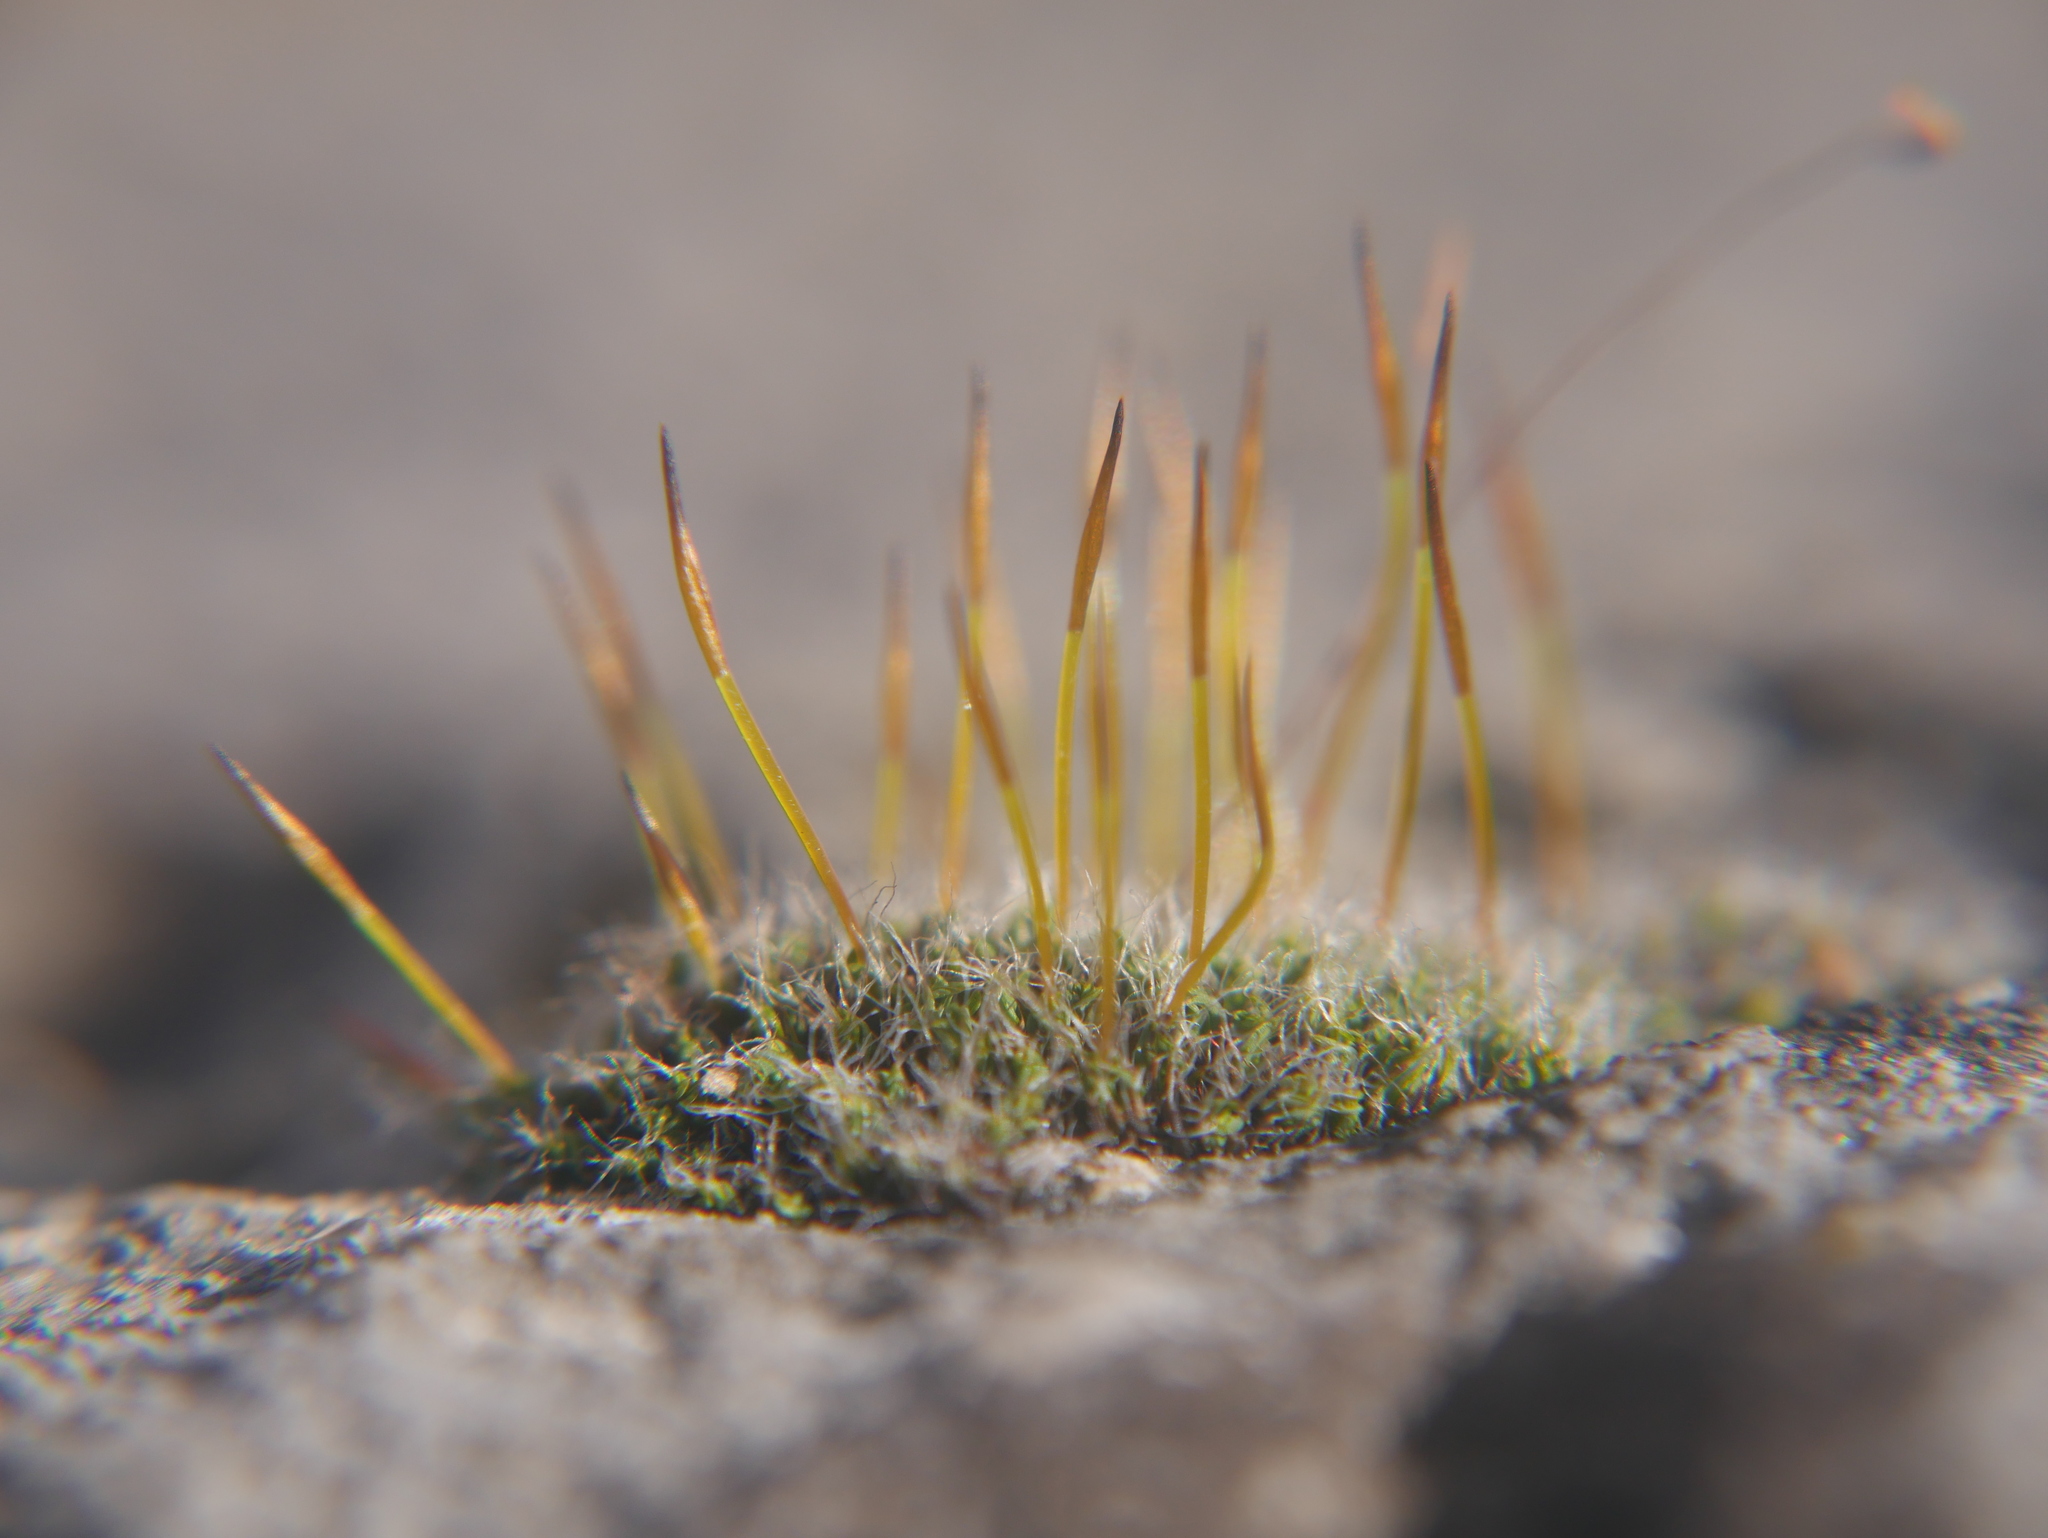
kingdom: Plantae
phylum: Bryophyta
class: Bryopsida
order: Pottiales
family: Pottiaceae
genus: Tortula
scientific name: Tortula muralis
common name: Wall screw-moss
